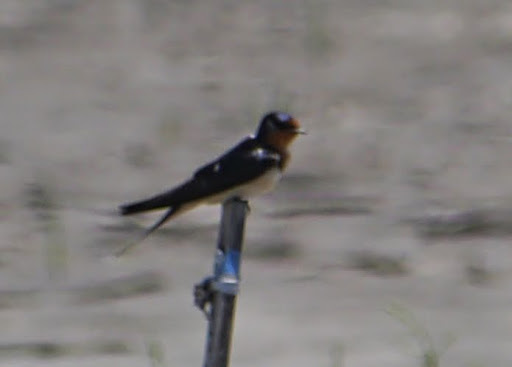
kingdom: Animalia
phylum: Chordata
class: Aves
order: Passeriformes
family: Hirundinidae
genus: Hirundo
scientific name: Hirundo rustica
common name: Barn swallow
